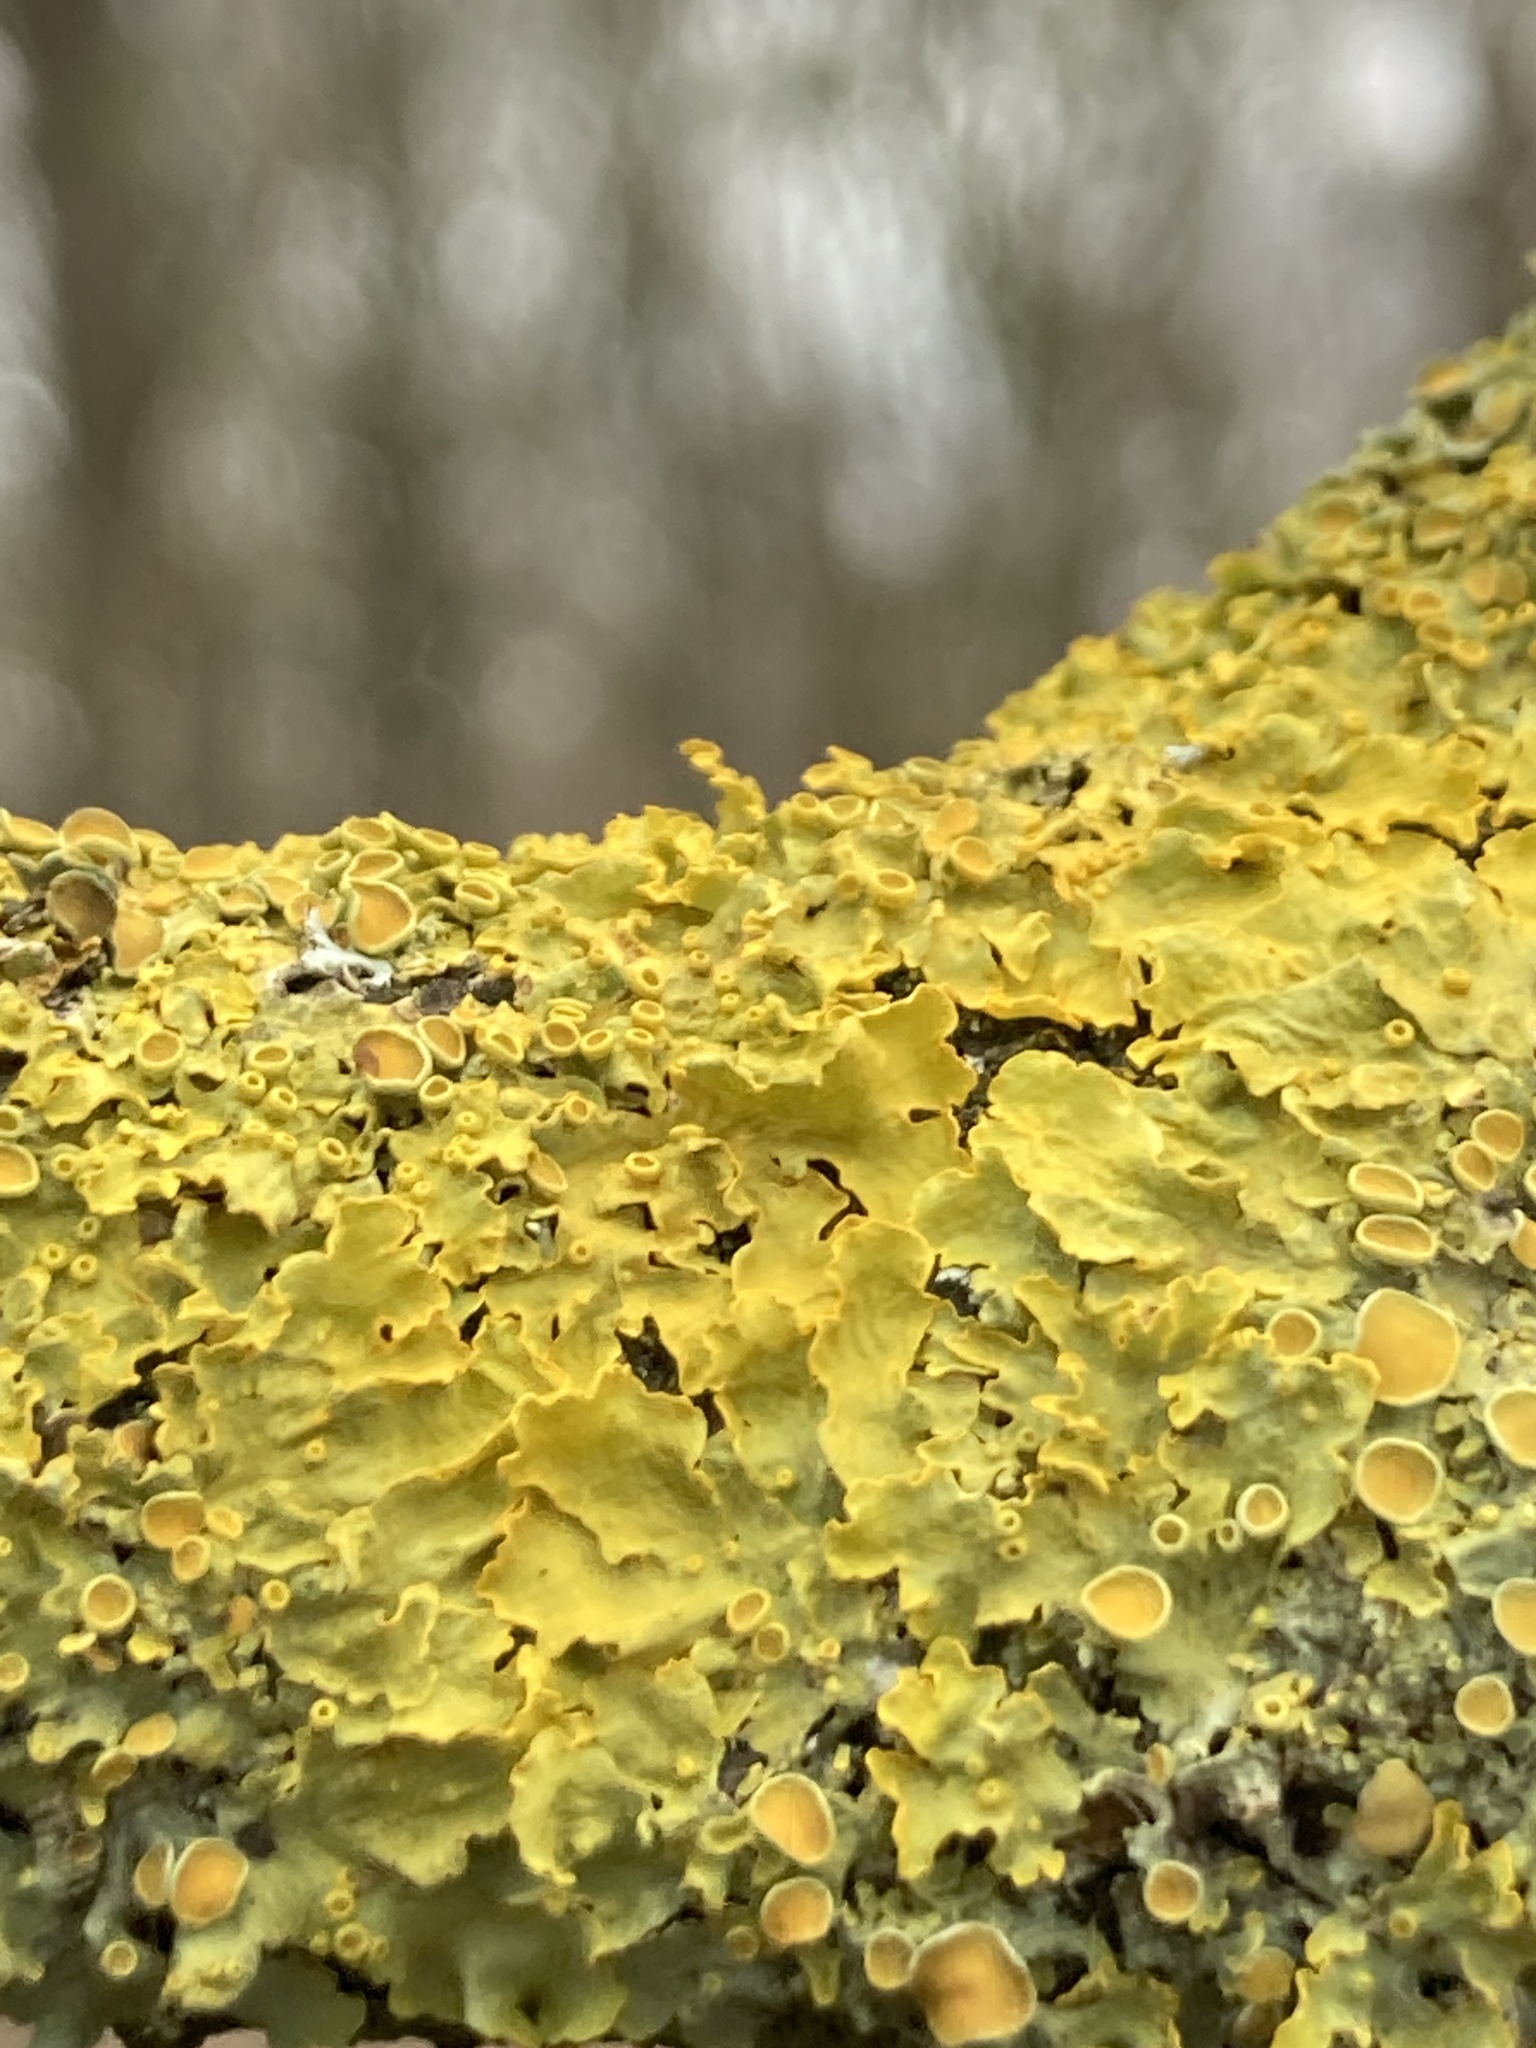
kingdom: Fungi
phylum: Ascomycota
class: Lecanoromycetes
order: Teloschistales
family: Teloschistaceae
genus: Xanthoria
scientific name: Xanthoria parietina
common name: Common orange lichen
